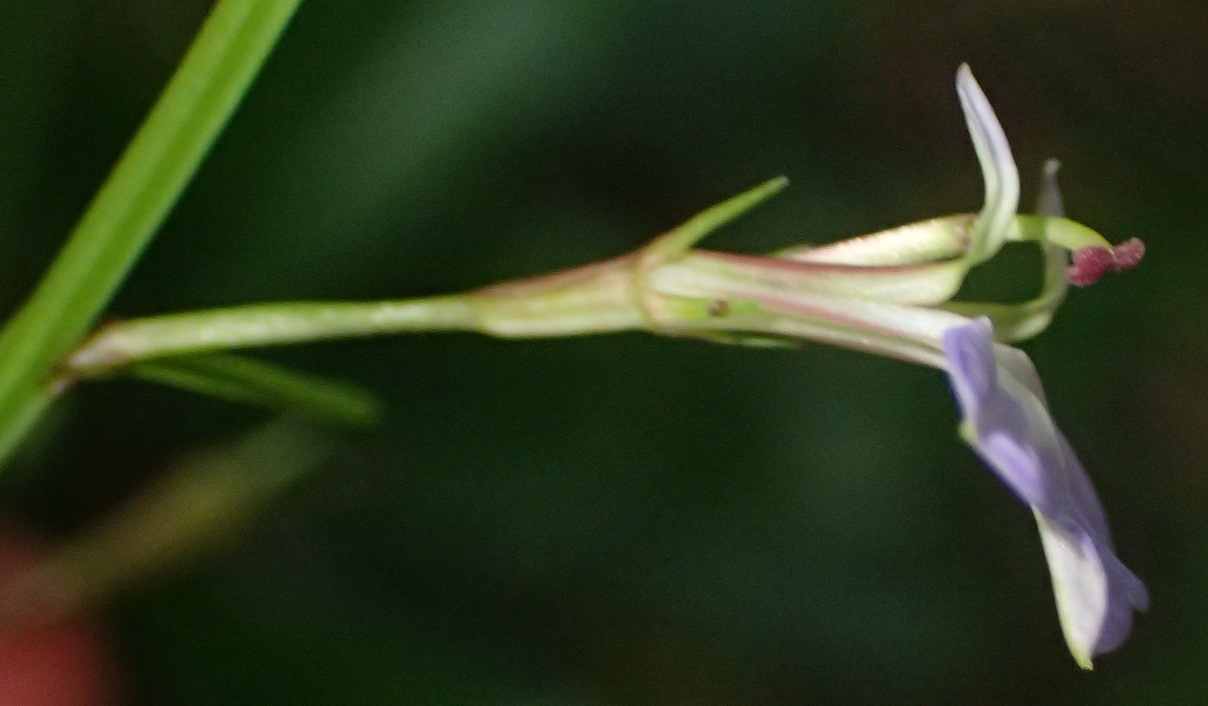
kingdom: Plantae
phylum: Tracheophyta
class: Magnoliopsida
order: Asterales
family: Campanulaceae
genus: Lobelia
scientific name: Lobelia anceps
